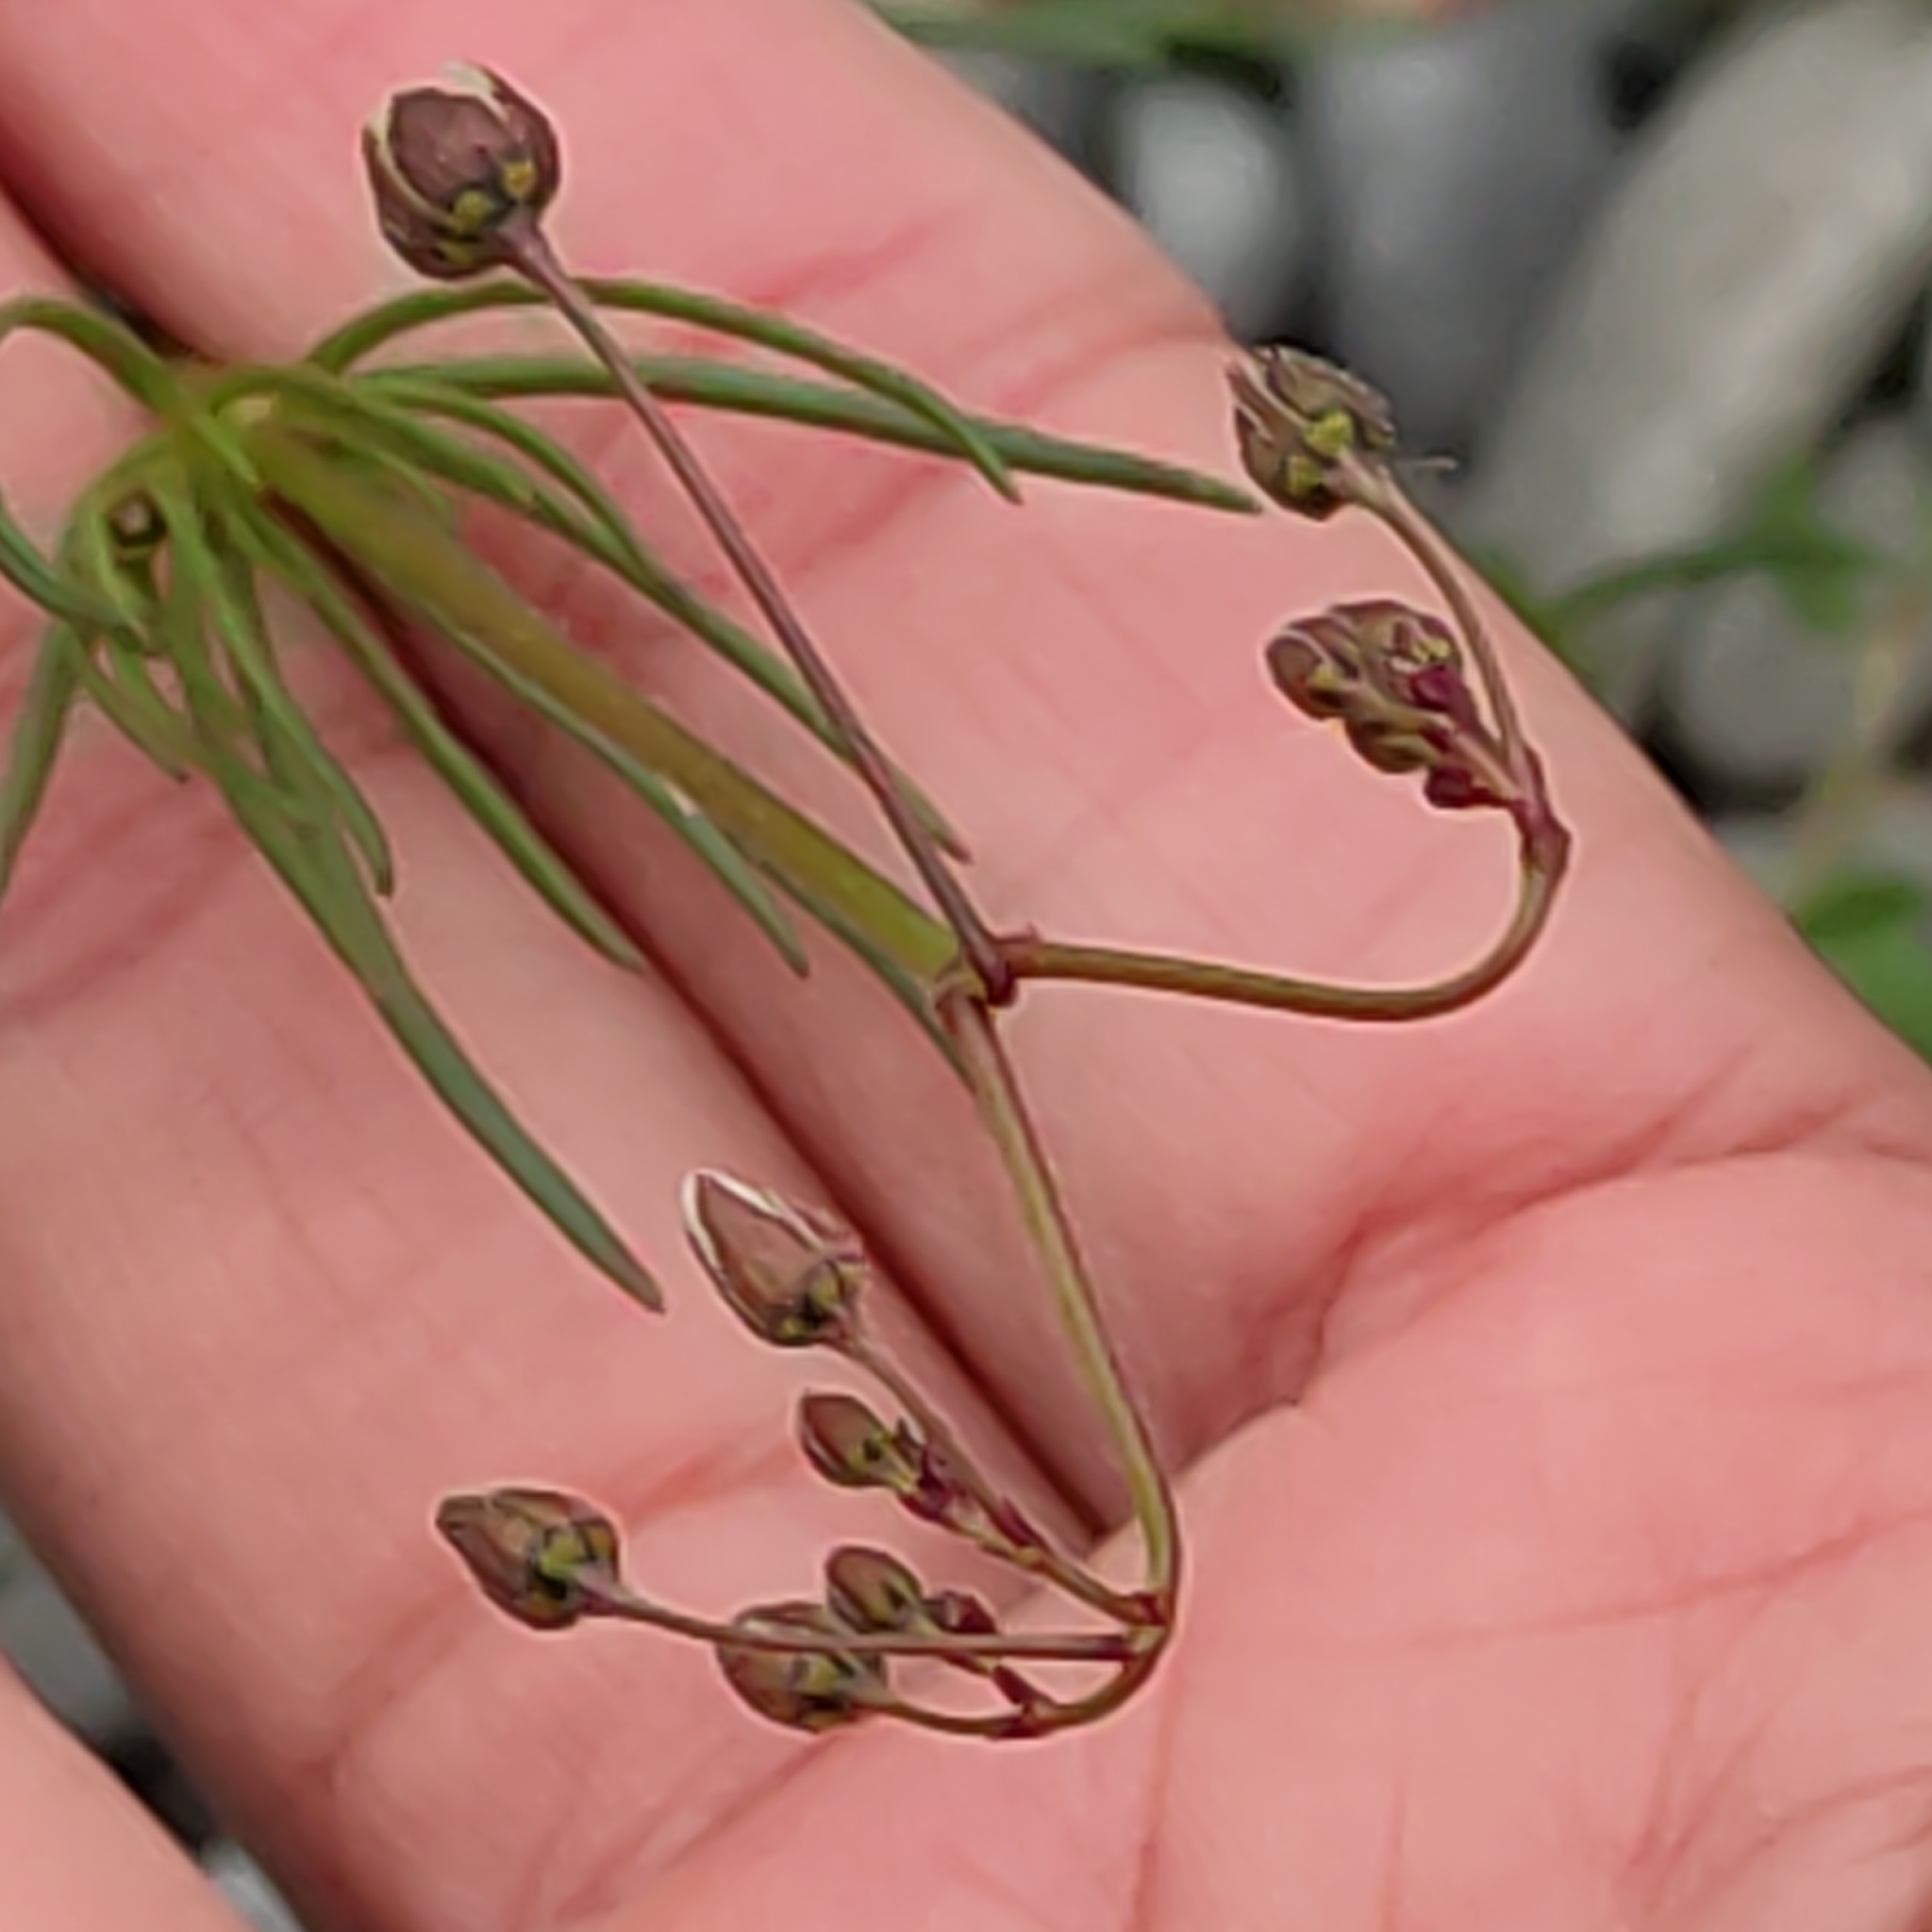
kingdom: Plantae
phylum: Tracheophyta
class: Magnoliopsida
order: Caryophyllales
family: Caryophyllaceae
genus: Spergula
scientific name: Spergula arvensis
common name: Corn spurrey
